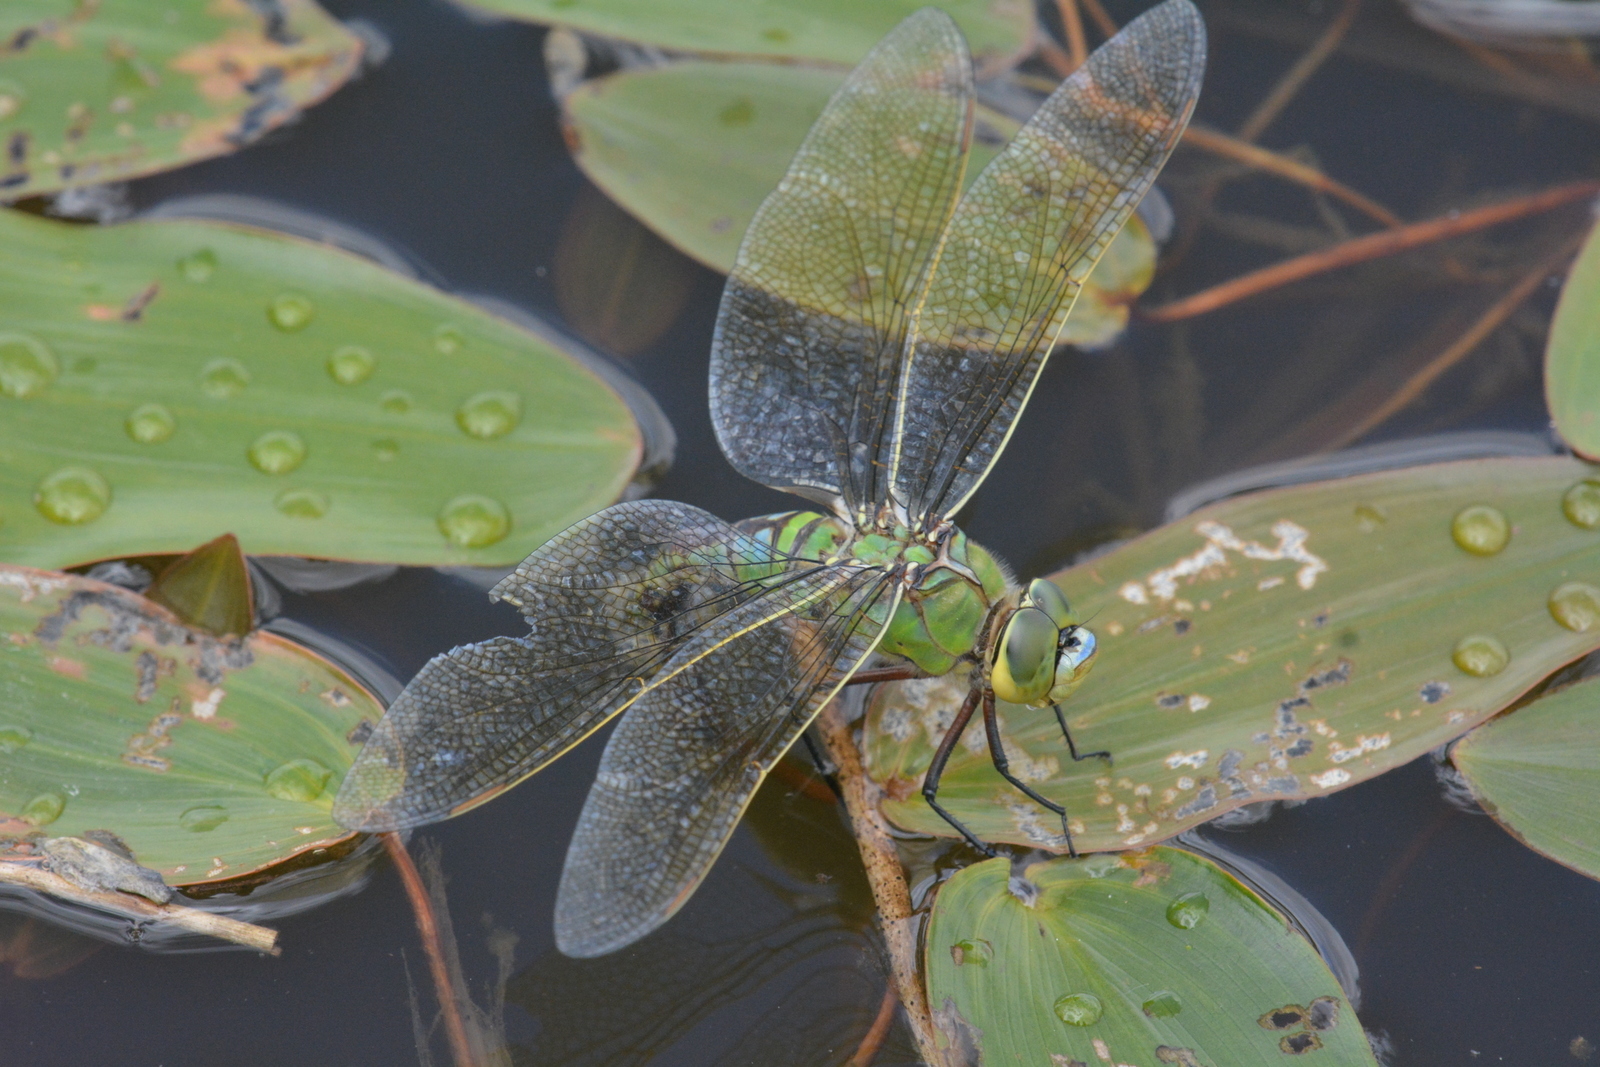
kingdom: Animalia
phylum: Arthropoda
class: Insecta
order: Odonata
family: Aeshnidae
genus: Anax
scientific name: Anax imperator
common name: Emperor dragonfly
